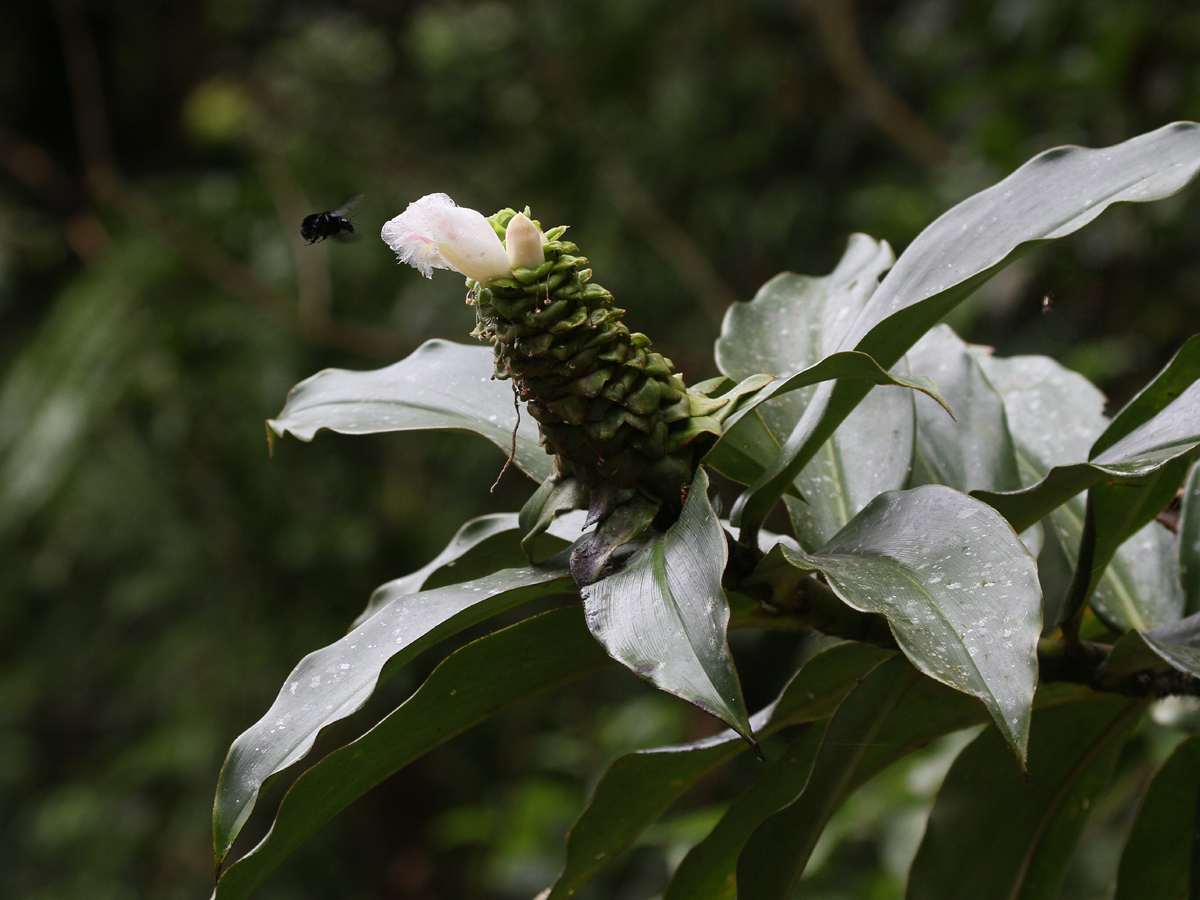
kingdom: Plantae
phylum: Tracheophyta
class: Liliopsida
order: Zingiberales
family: Costaceae
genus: Costus
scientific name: Costus asplundii
